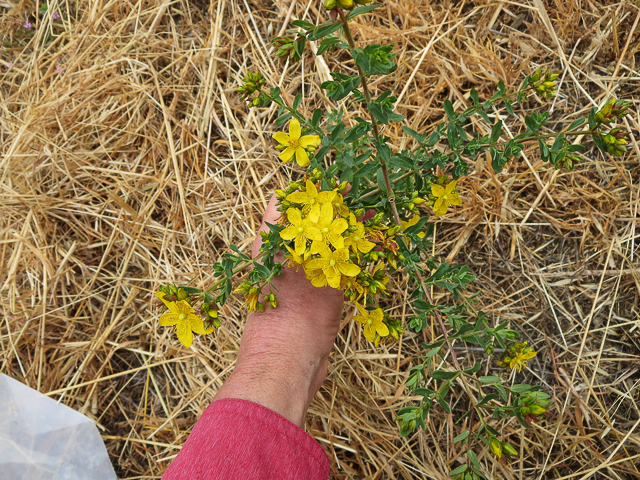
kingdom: Plantae
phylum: Tracheophyta
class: Magnoliopsida
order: Malpighiales
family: Hypericaceae
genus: Hypericum
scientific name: Hypericum perforatum
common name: Common st. johnswort
